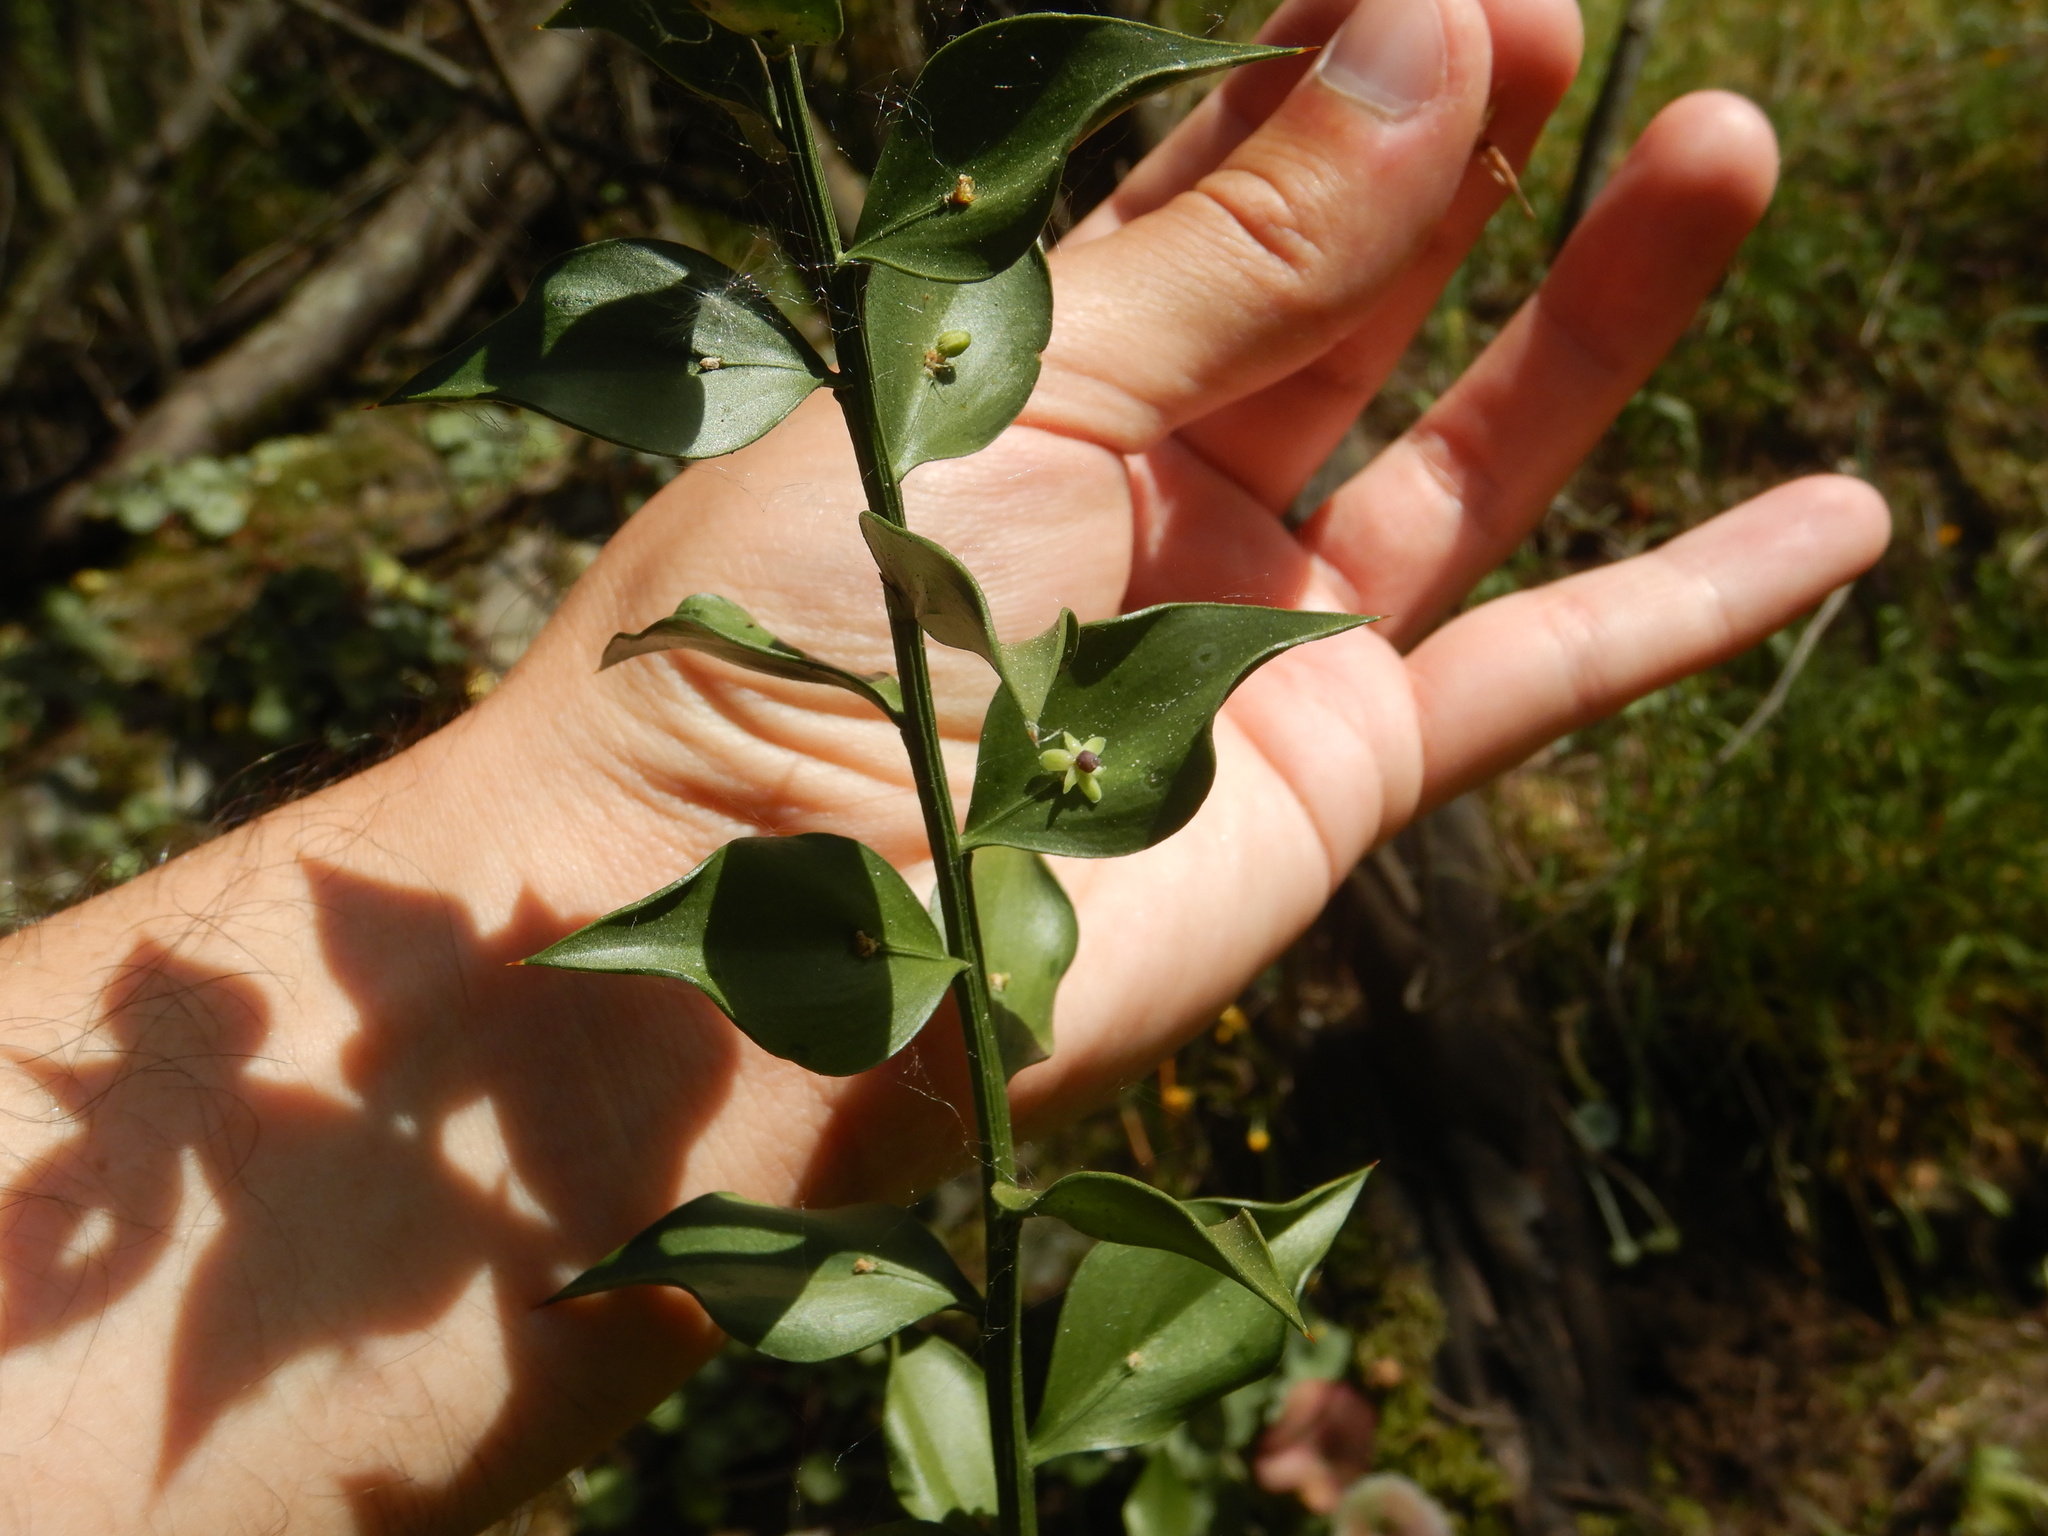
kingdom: Plantae
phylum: Tracheophyta
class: Liliopsida
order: Asparagales
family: Asparagaceae
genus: Ruscus
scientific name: Ruscus aculeatus
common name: Butcher's-broom
